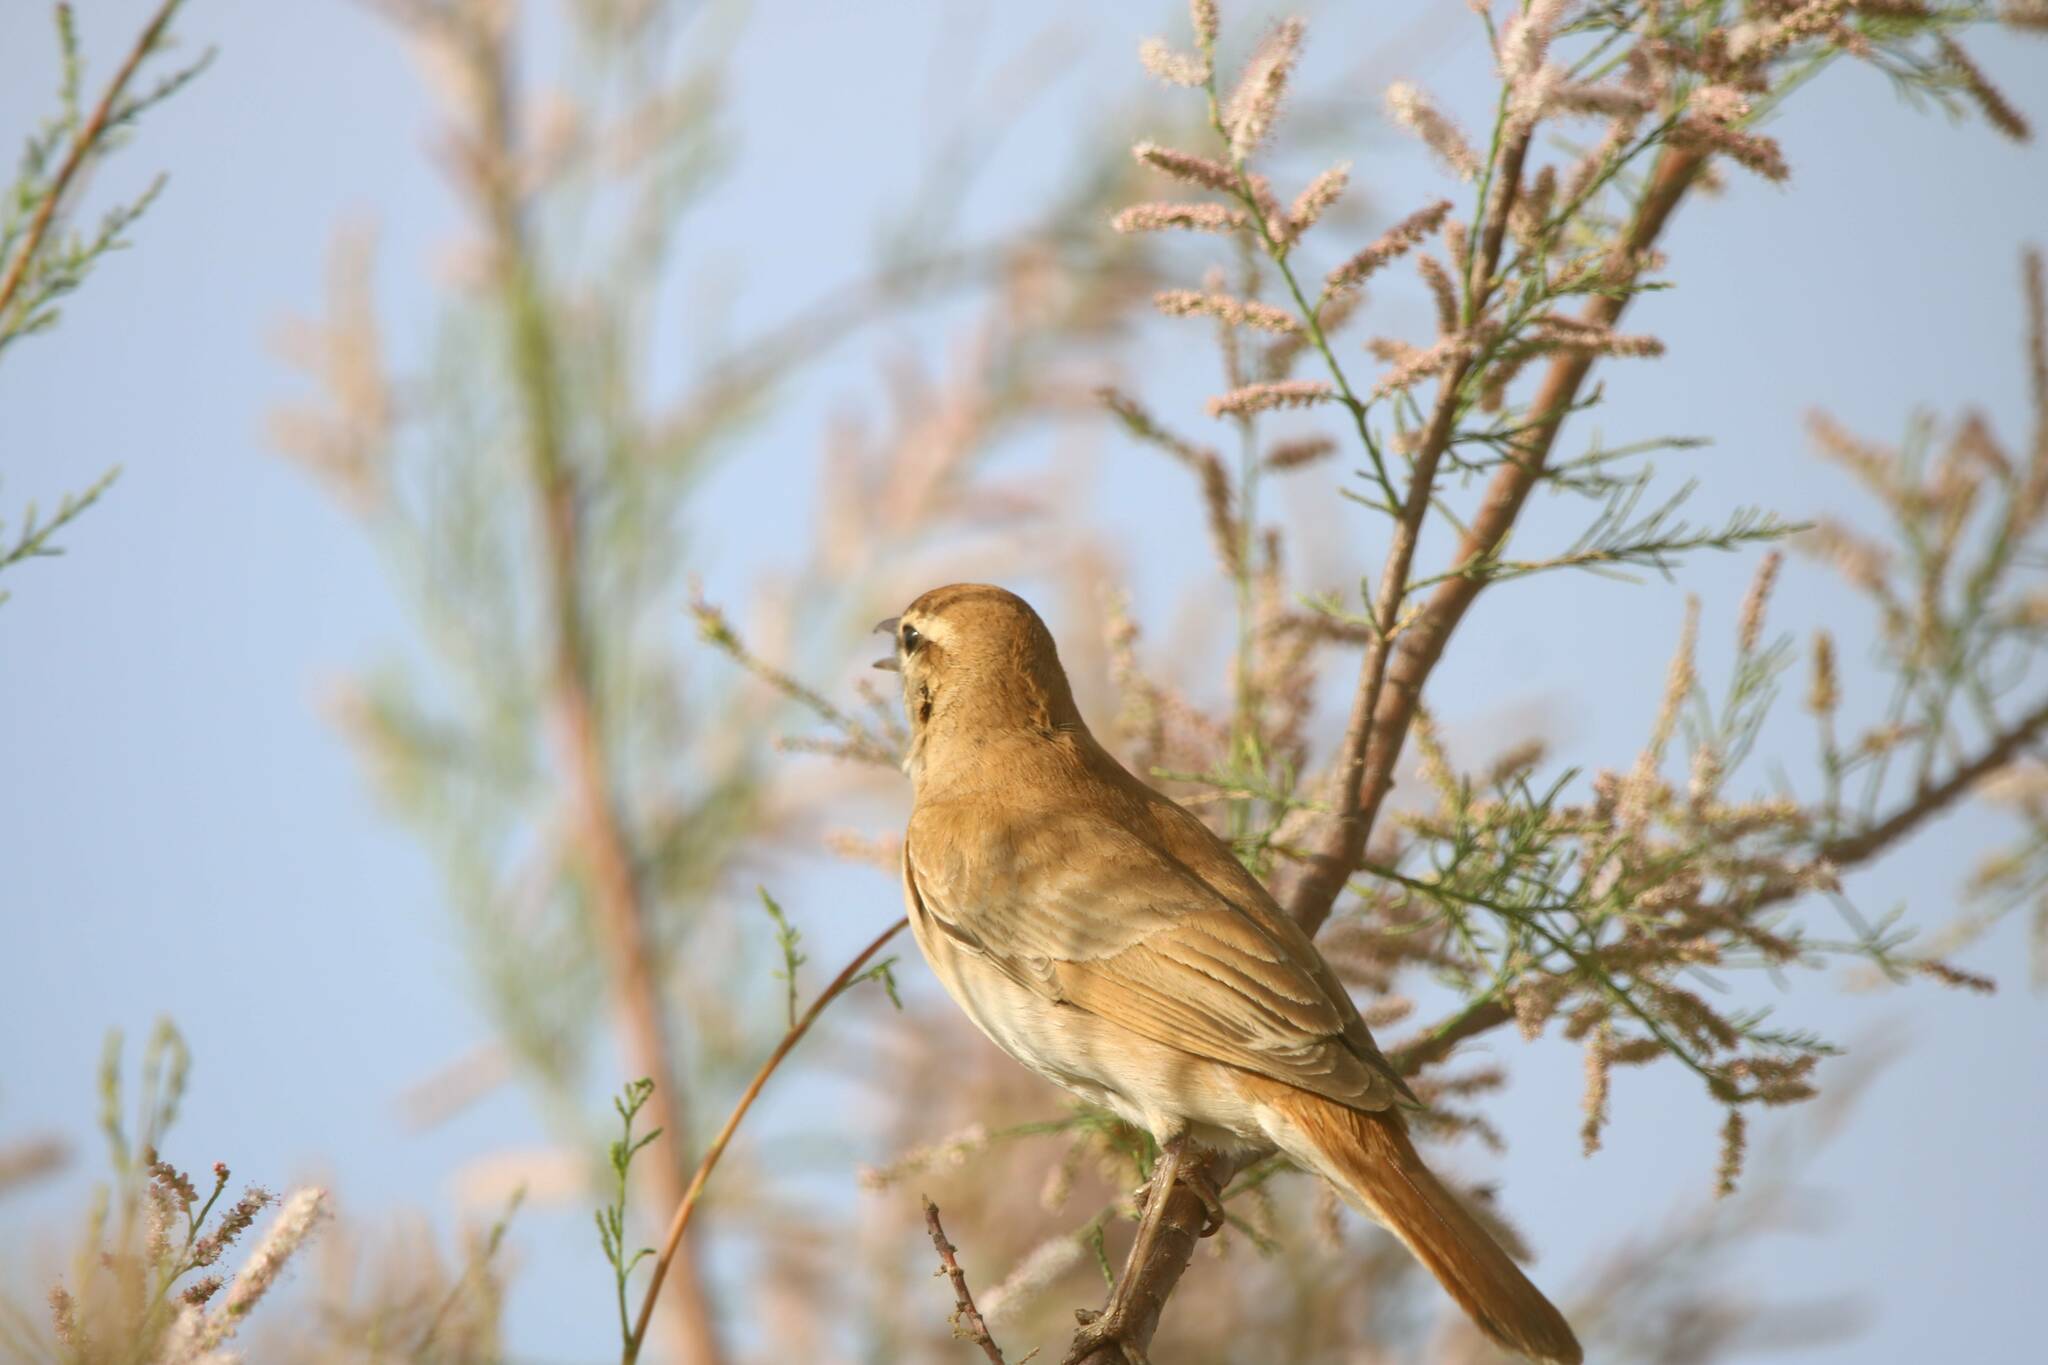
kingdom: Animalia
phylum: Chordata
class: Aves
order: Passeriformes
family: Muscicapidae
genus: Erythropygia
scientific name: Erythropygia galactotes
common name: Rufous-tailed scrub robin
